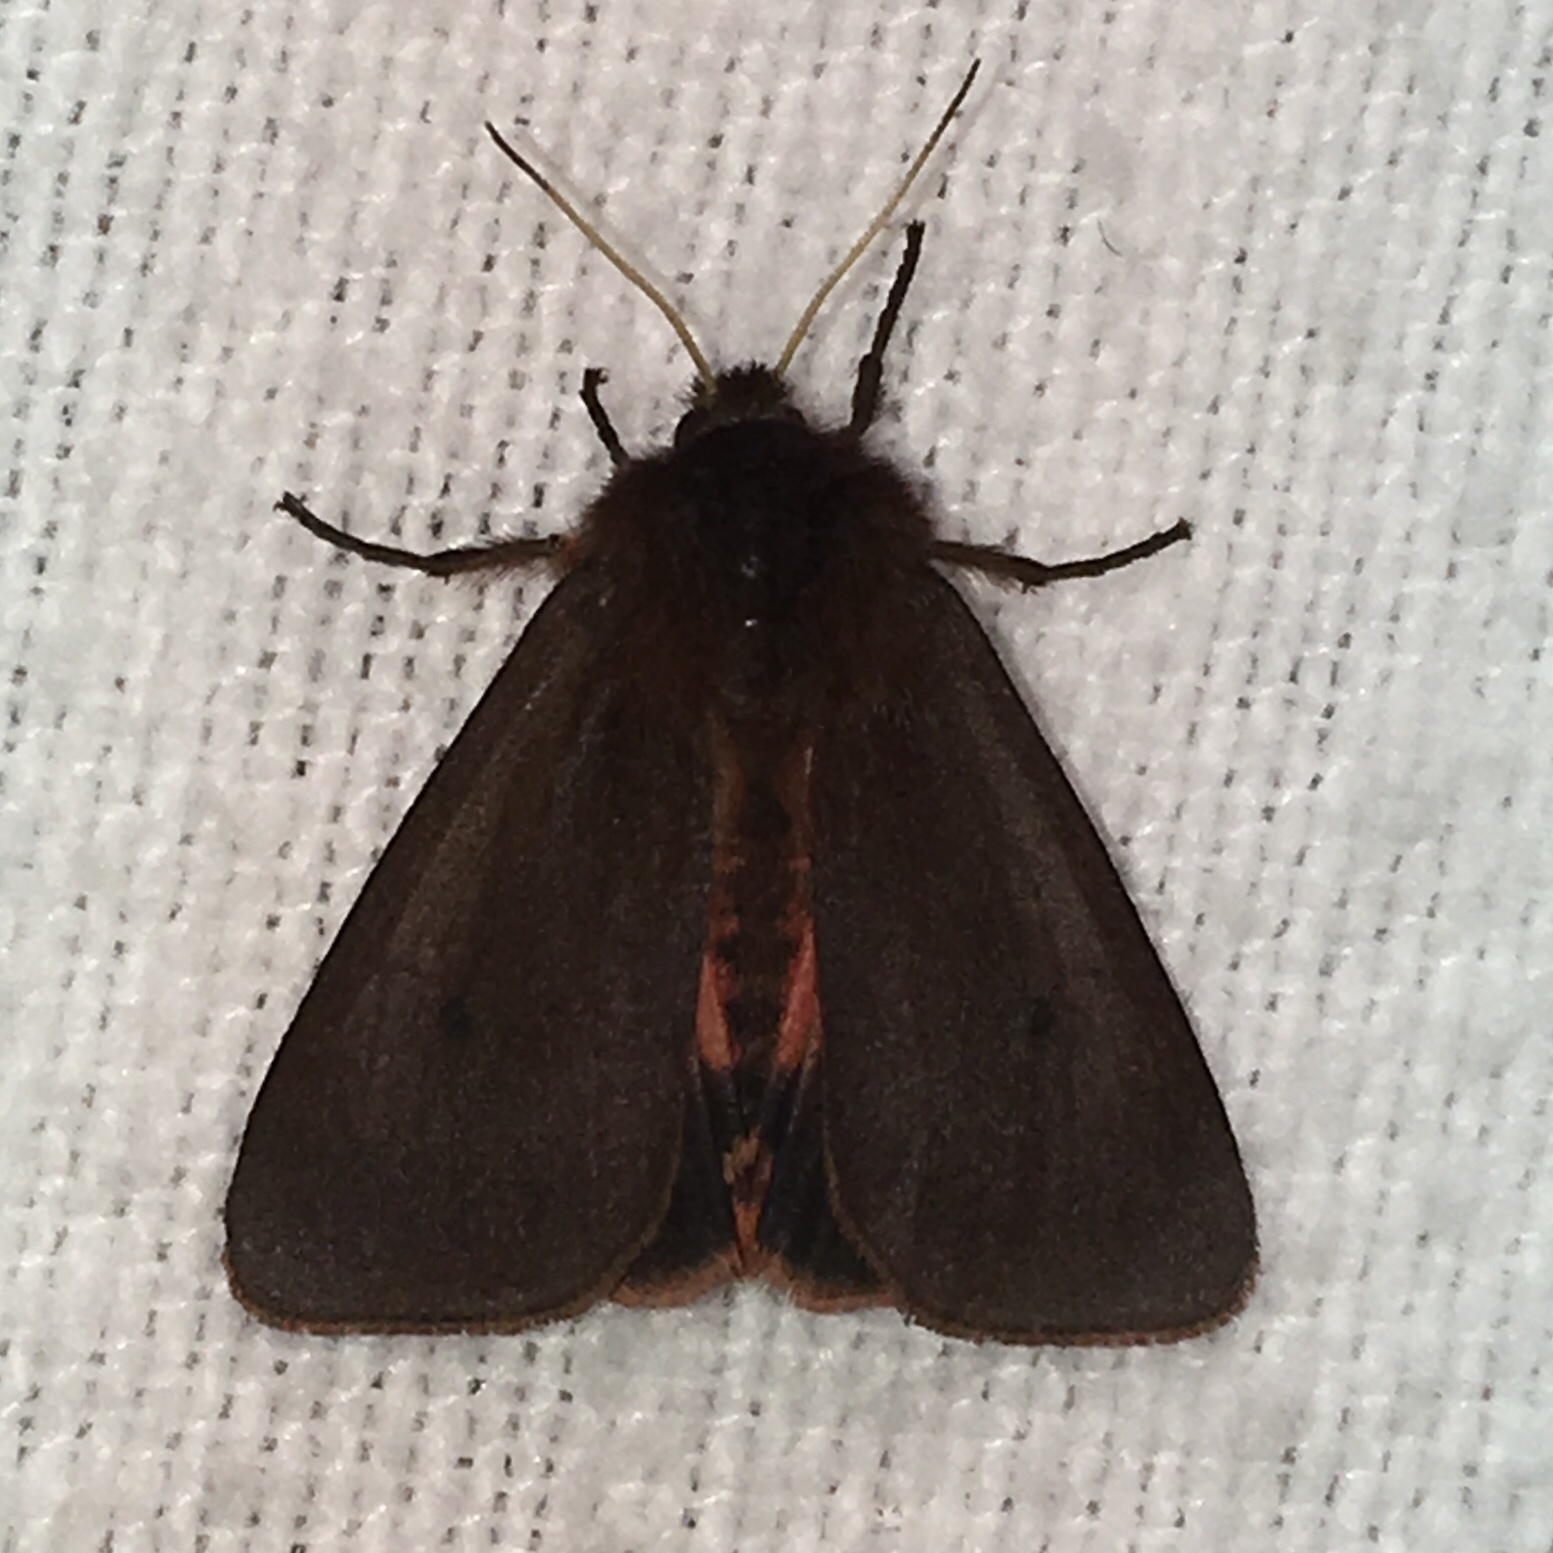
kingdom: Animalia
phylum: Arthropoda
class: Insecta
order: Lepidoptera
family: Erebidae
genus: Phragmatobia
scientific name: Phragmatobia fuliginosa
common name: Ruby tiger
